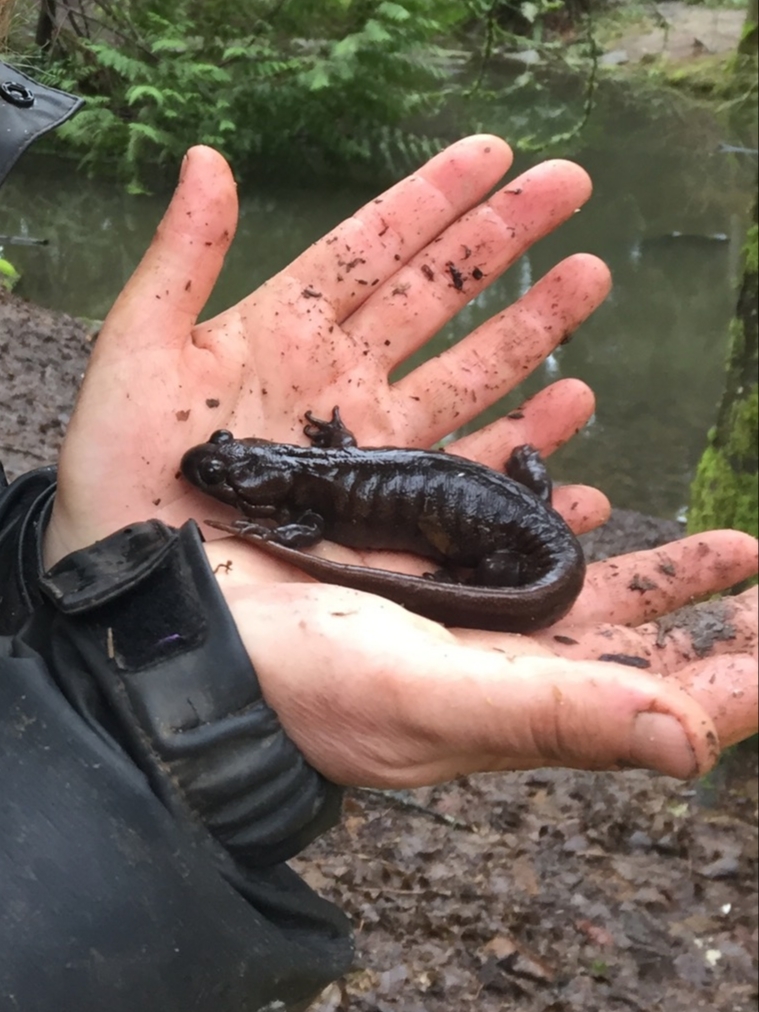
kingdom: Animalia
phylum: Chordata
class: Amphibia
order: Caudata
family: Ambystomatidae
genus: Ambystoma
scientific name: Ambystoma gracile
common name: Northwestern salamander
